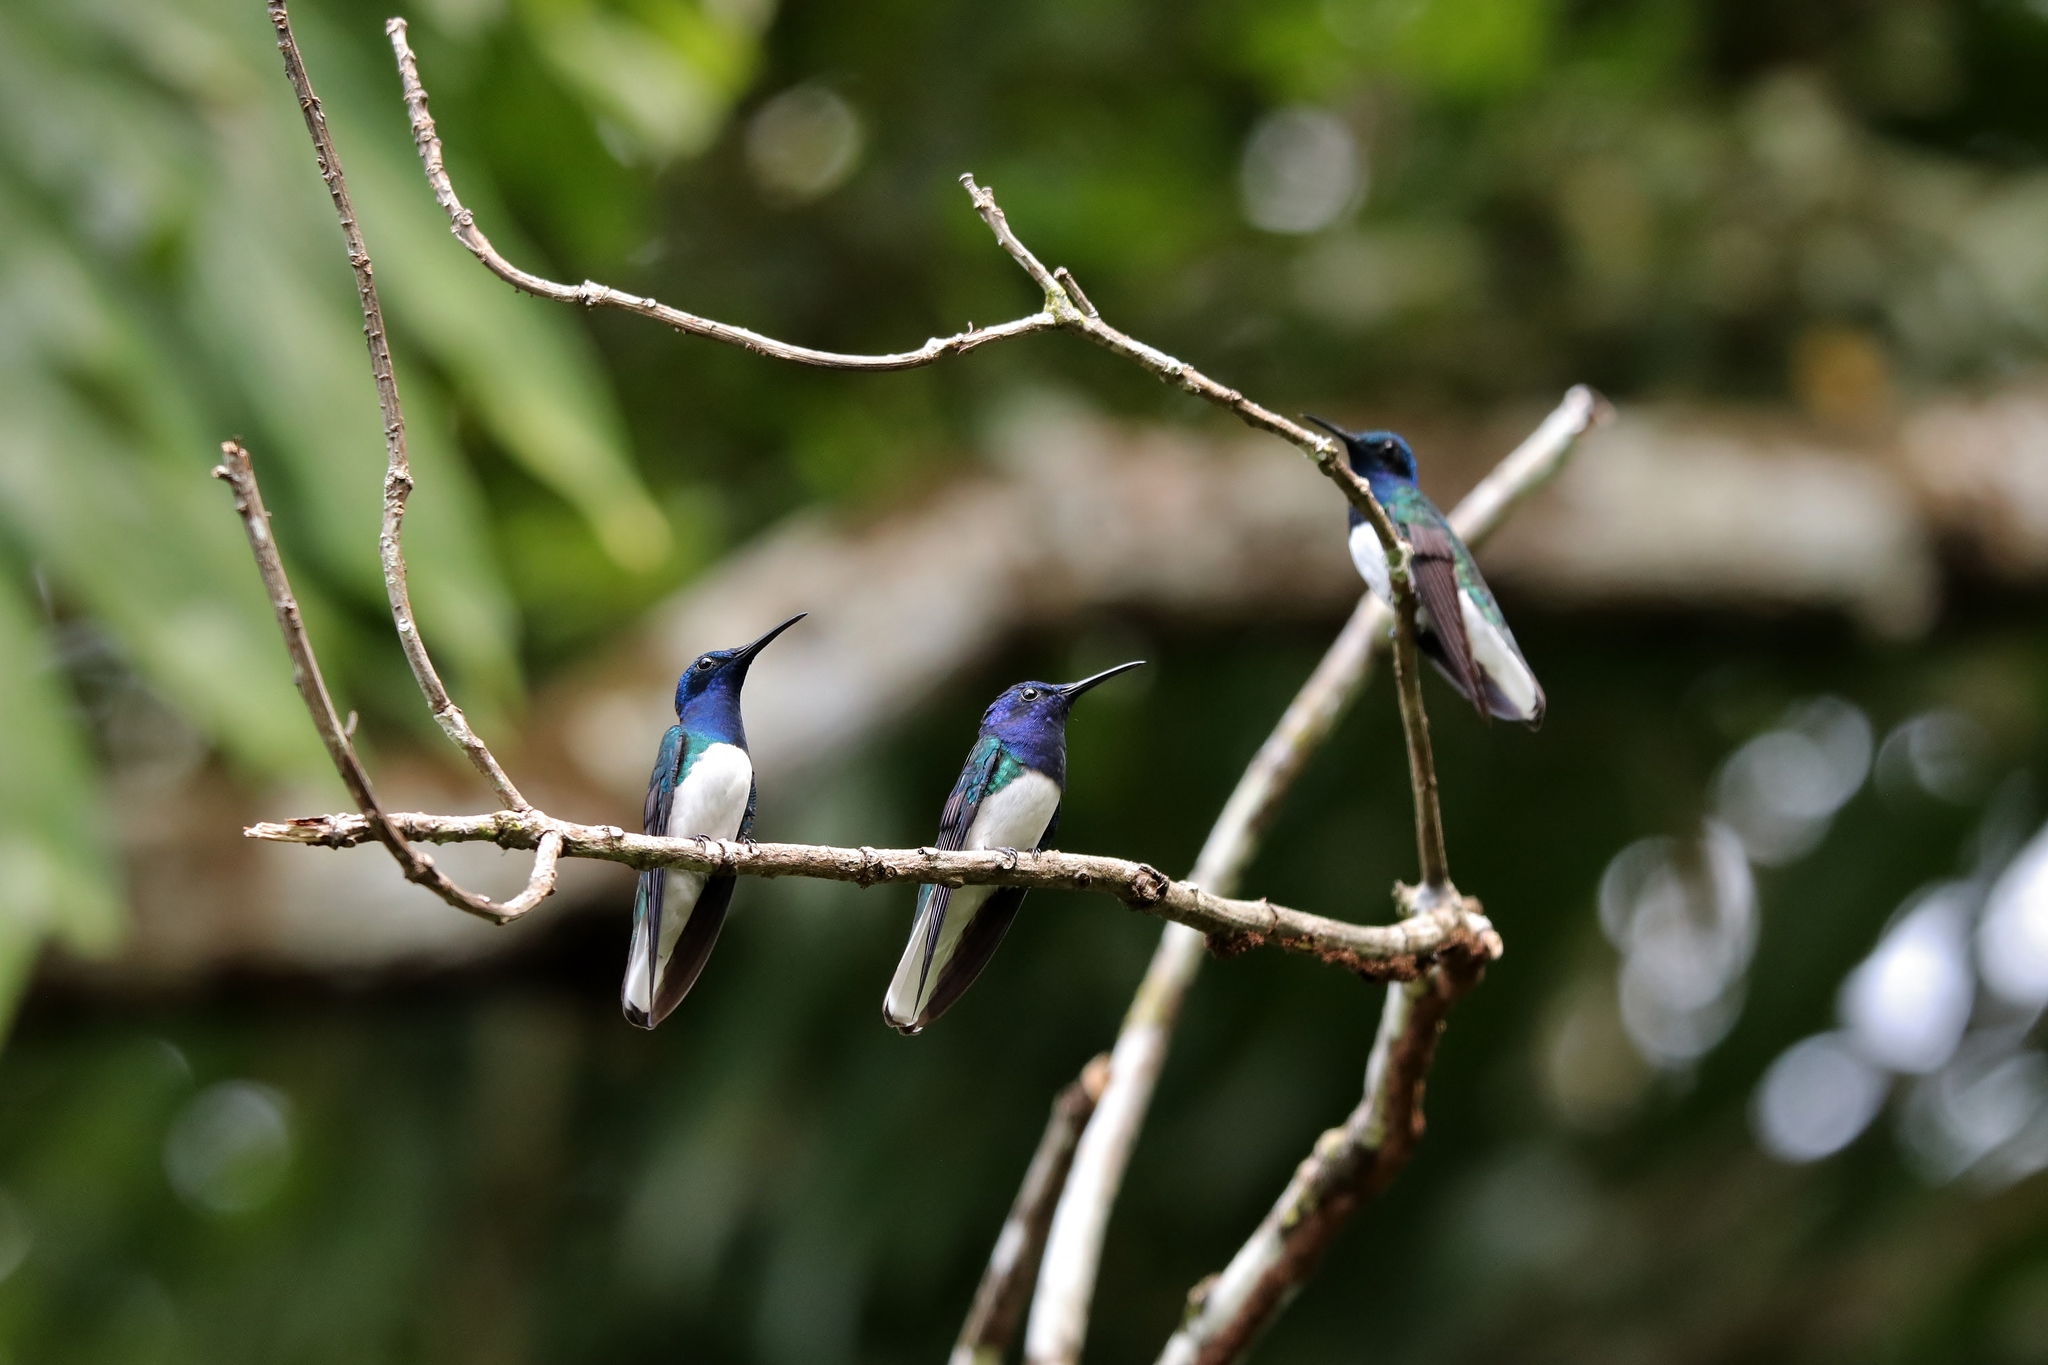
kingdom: Animalia
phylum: Chordata
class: Aves
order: Apodiformes
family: Trochilidae
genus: Florisuga
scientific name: Florisuga mellivora
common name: White-necked jacobin
